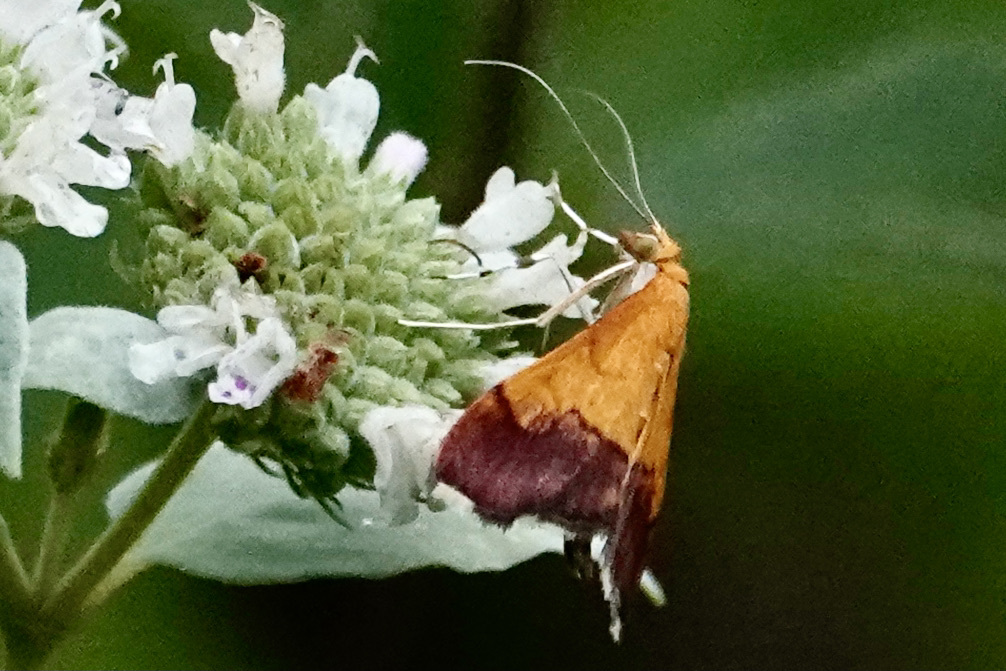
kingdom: Animalia
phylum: Arthropoda
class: Insecta
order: Lepidoptera
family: Crambidae
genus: Pyrausta
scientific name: Pyrausta bicoloralis
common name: Bicolored pyrausta moth
